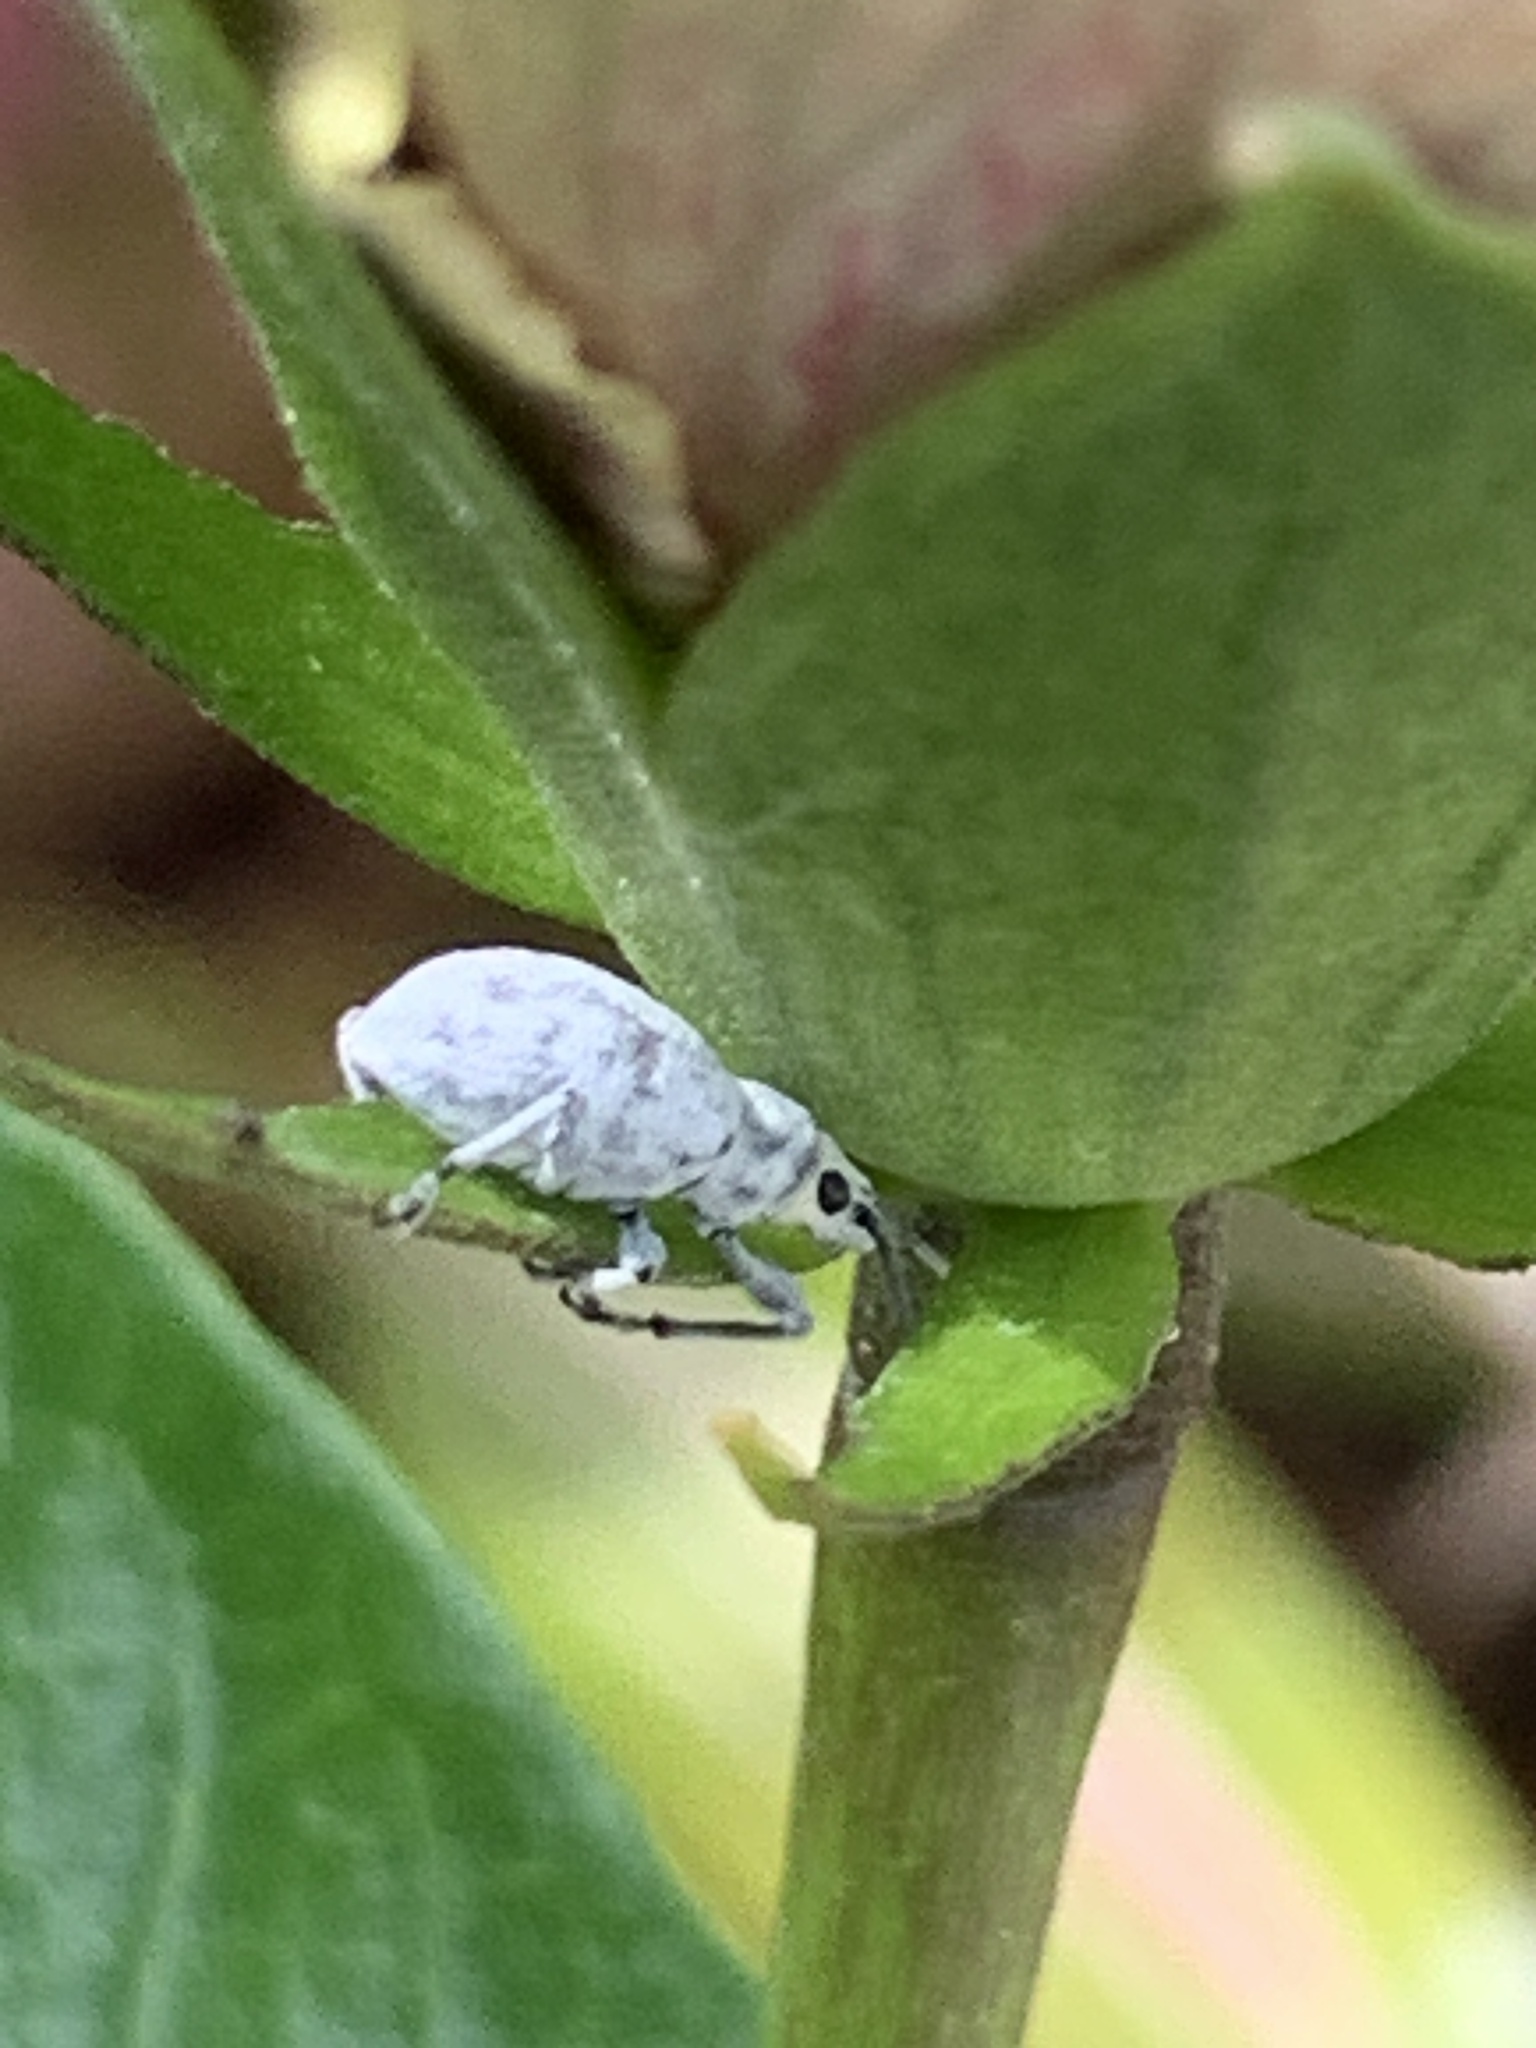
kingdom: Animalia
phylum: Arthropoda
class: Insecta
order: Coleoptera
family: Curculionidae
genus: Myllocerus
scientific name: Myllocerus undecimpustulatus
